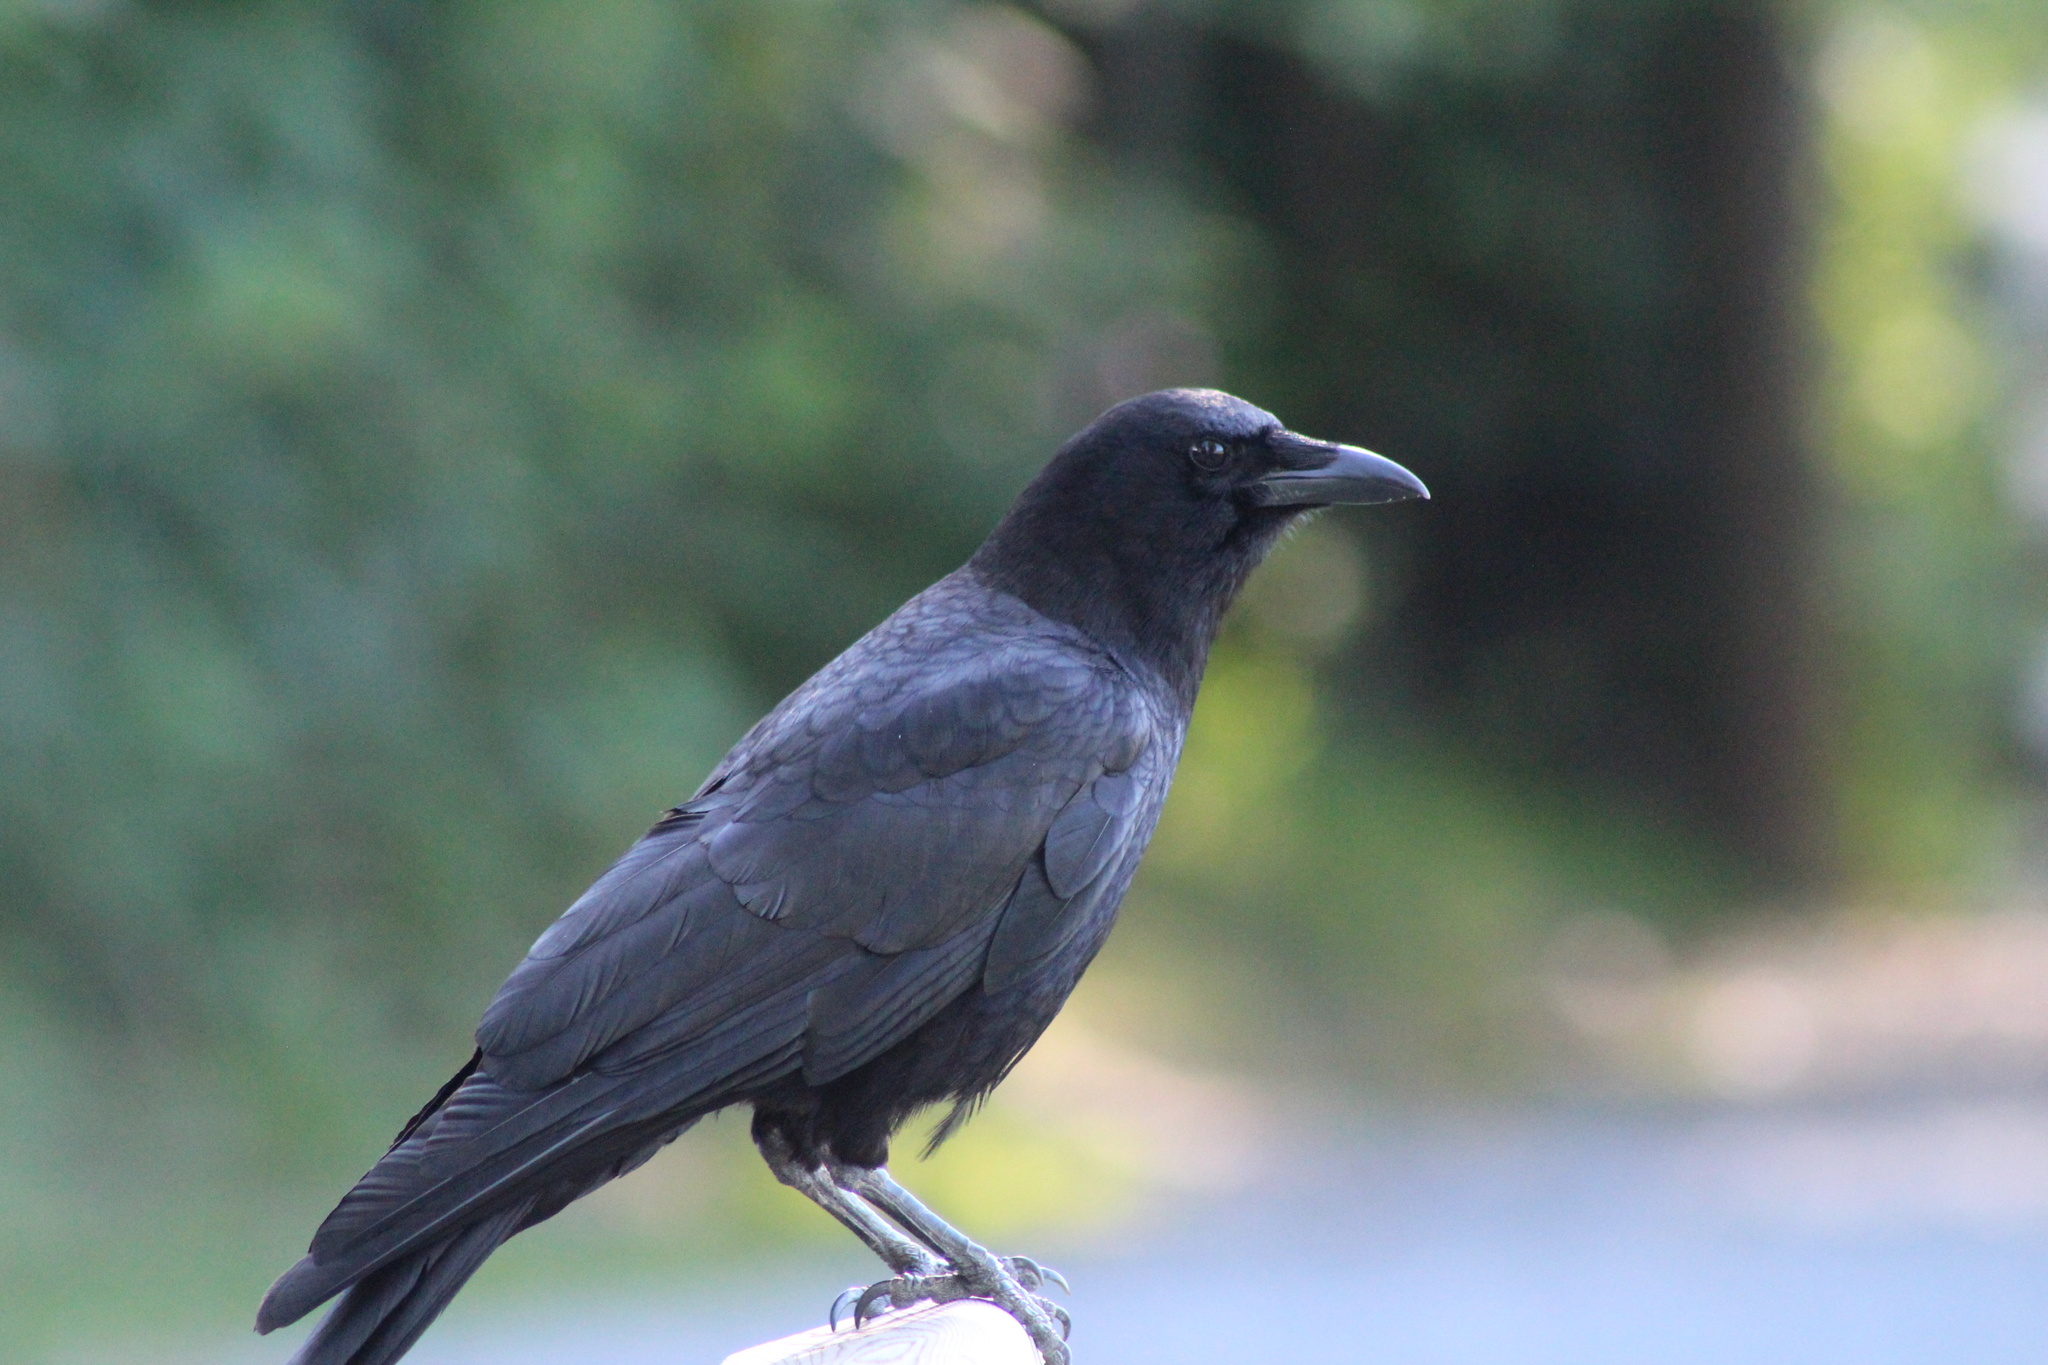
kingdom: Animalia
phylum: Chordata
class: Aves
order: Passeriformes
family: Corvidae
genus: Corvus
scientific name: Corvus brachyrhynchos
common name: American crow
